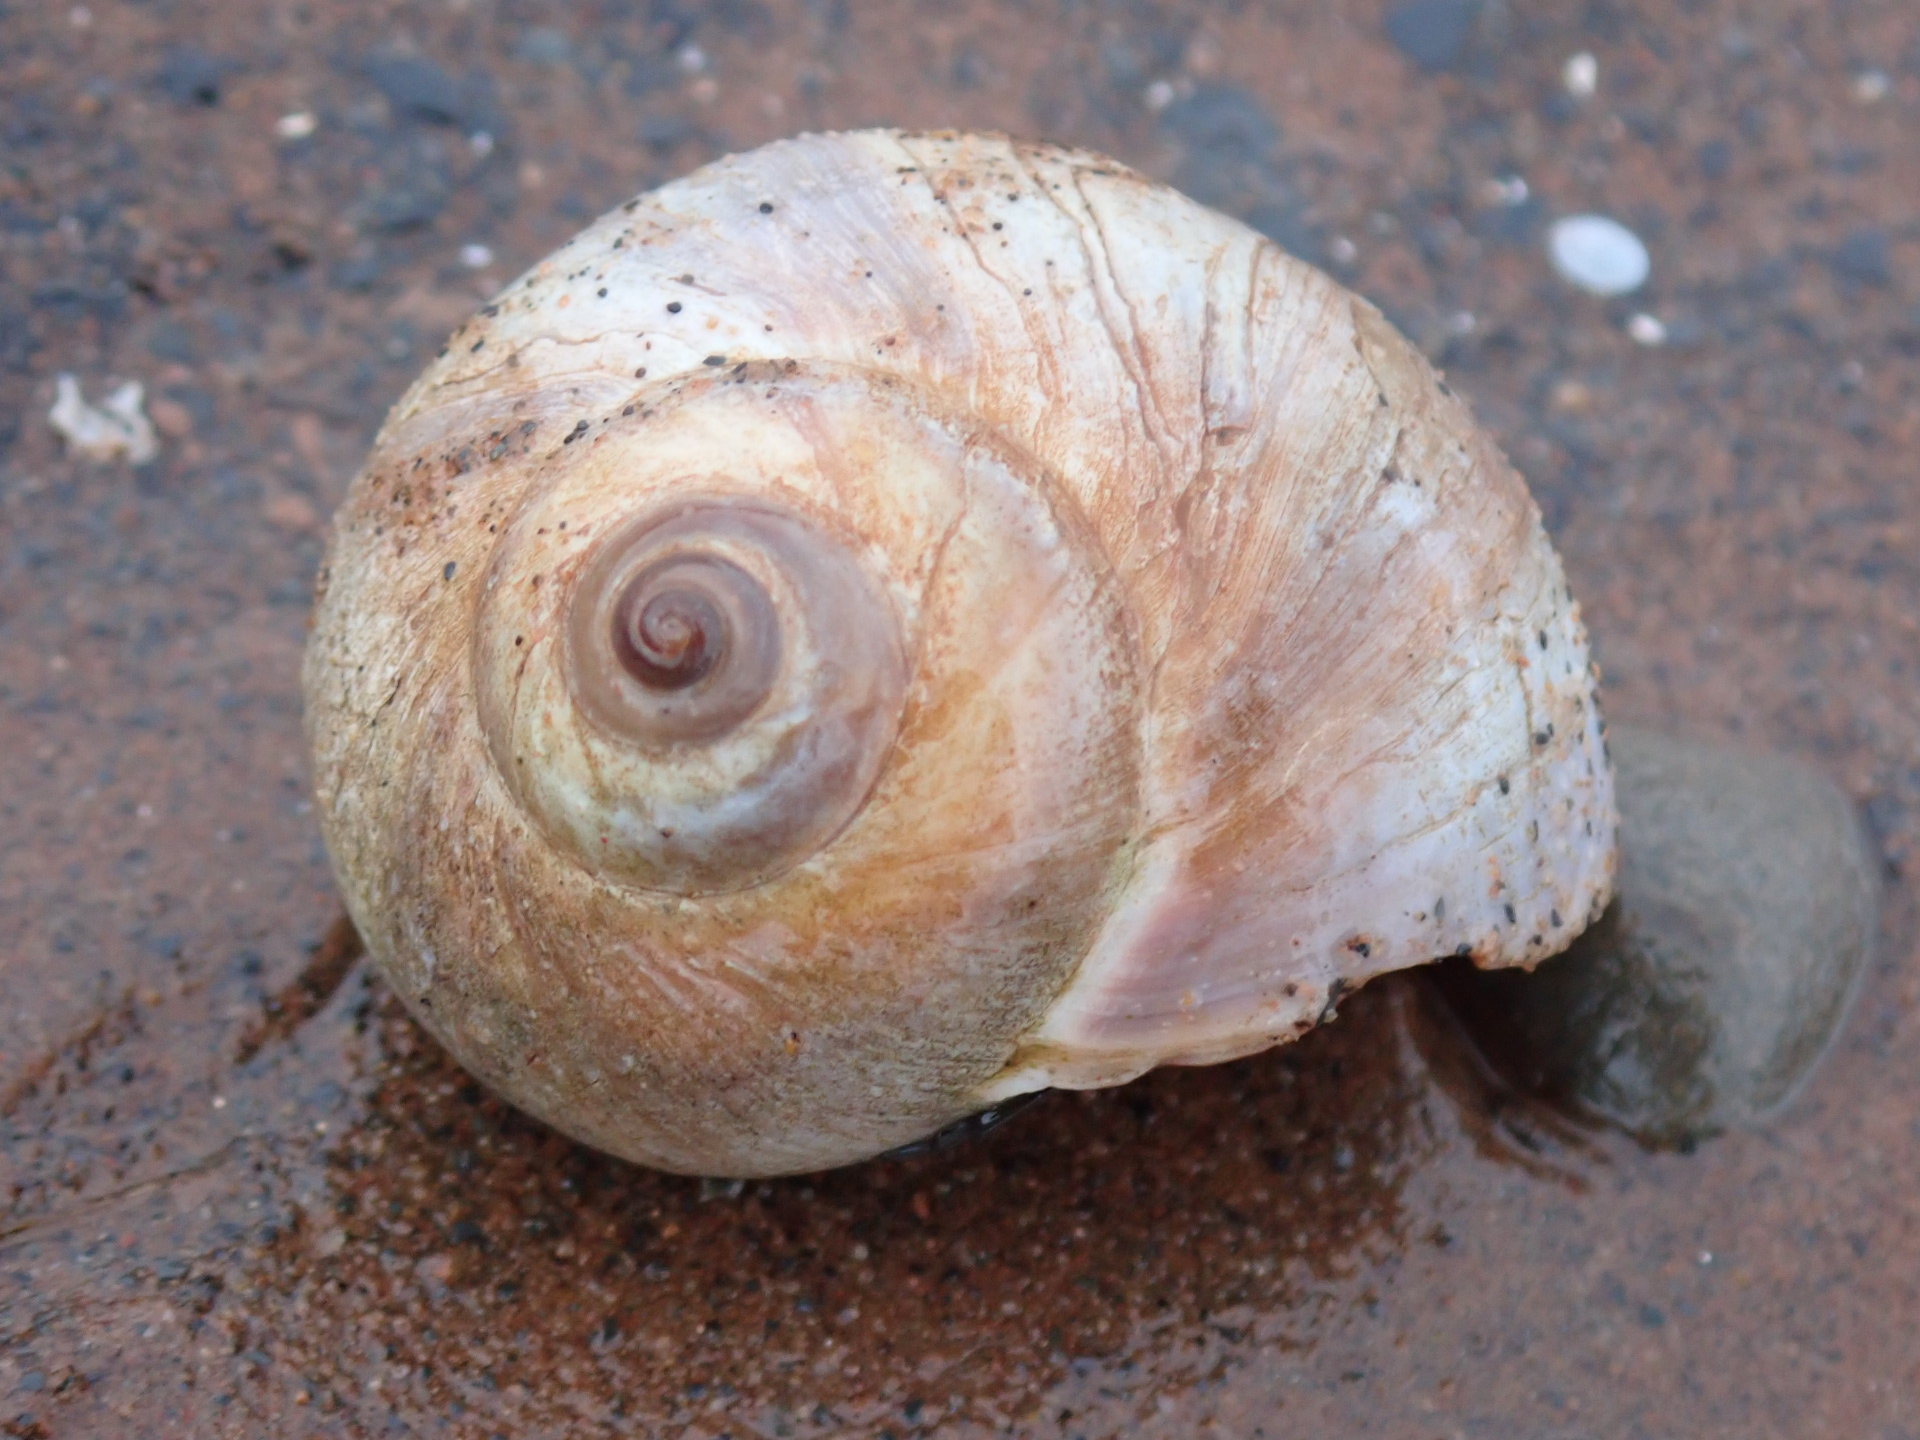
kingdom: Animalia
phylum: Mollusca
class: Gastropoda
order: Littorinimorpha
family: Naticidae
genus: Euspira
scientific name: Euspira heros
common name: Common northern moonsnail
